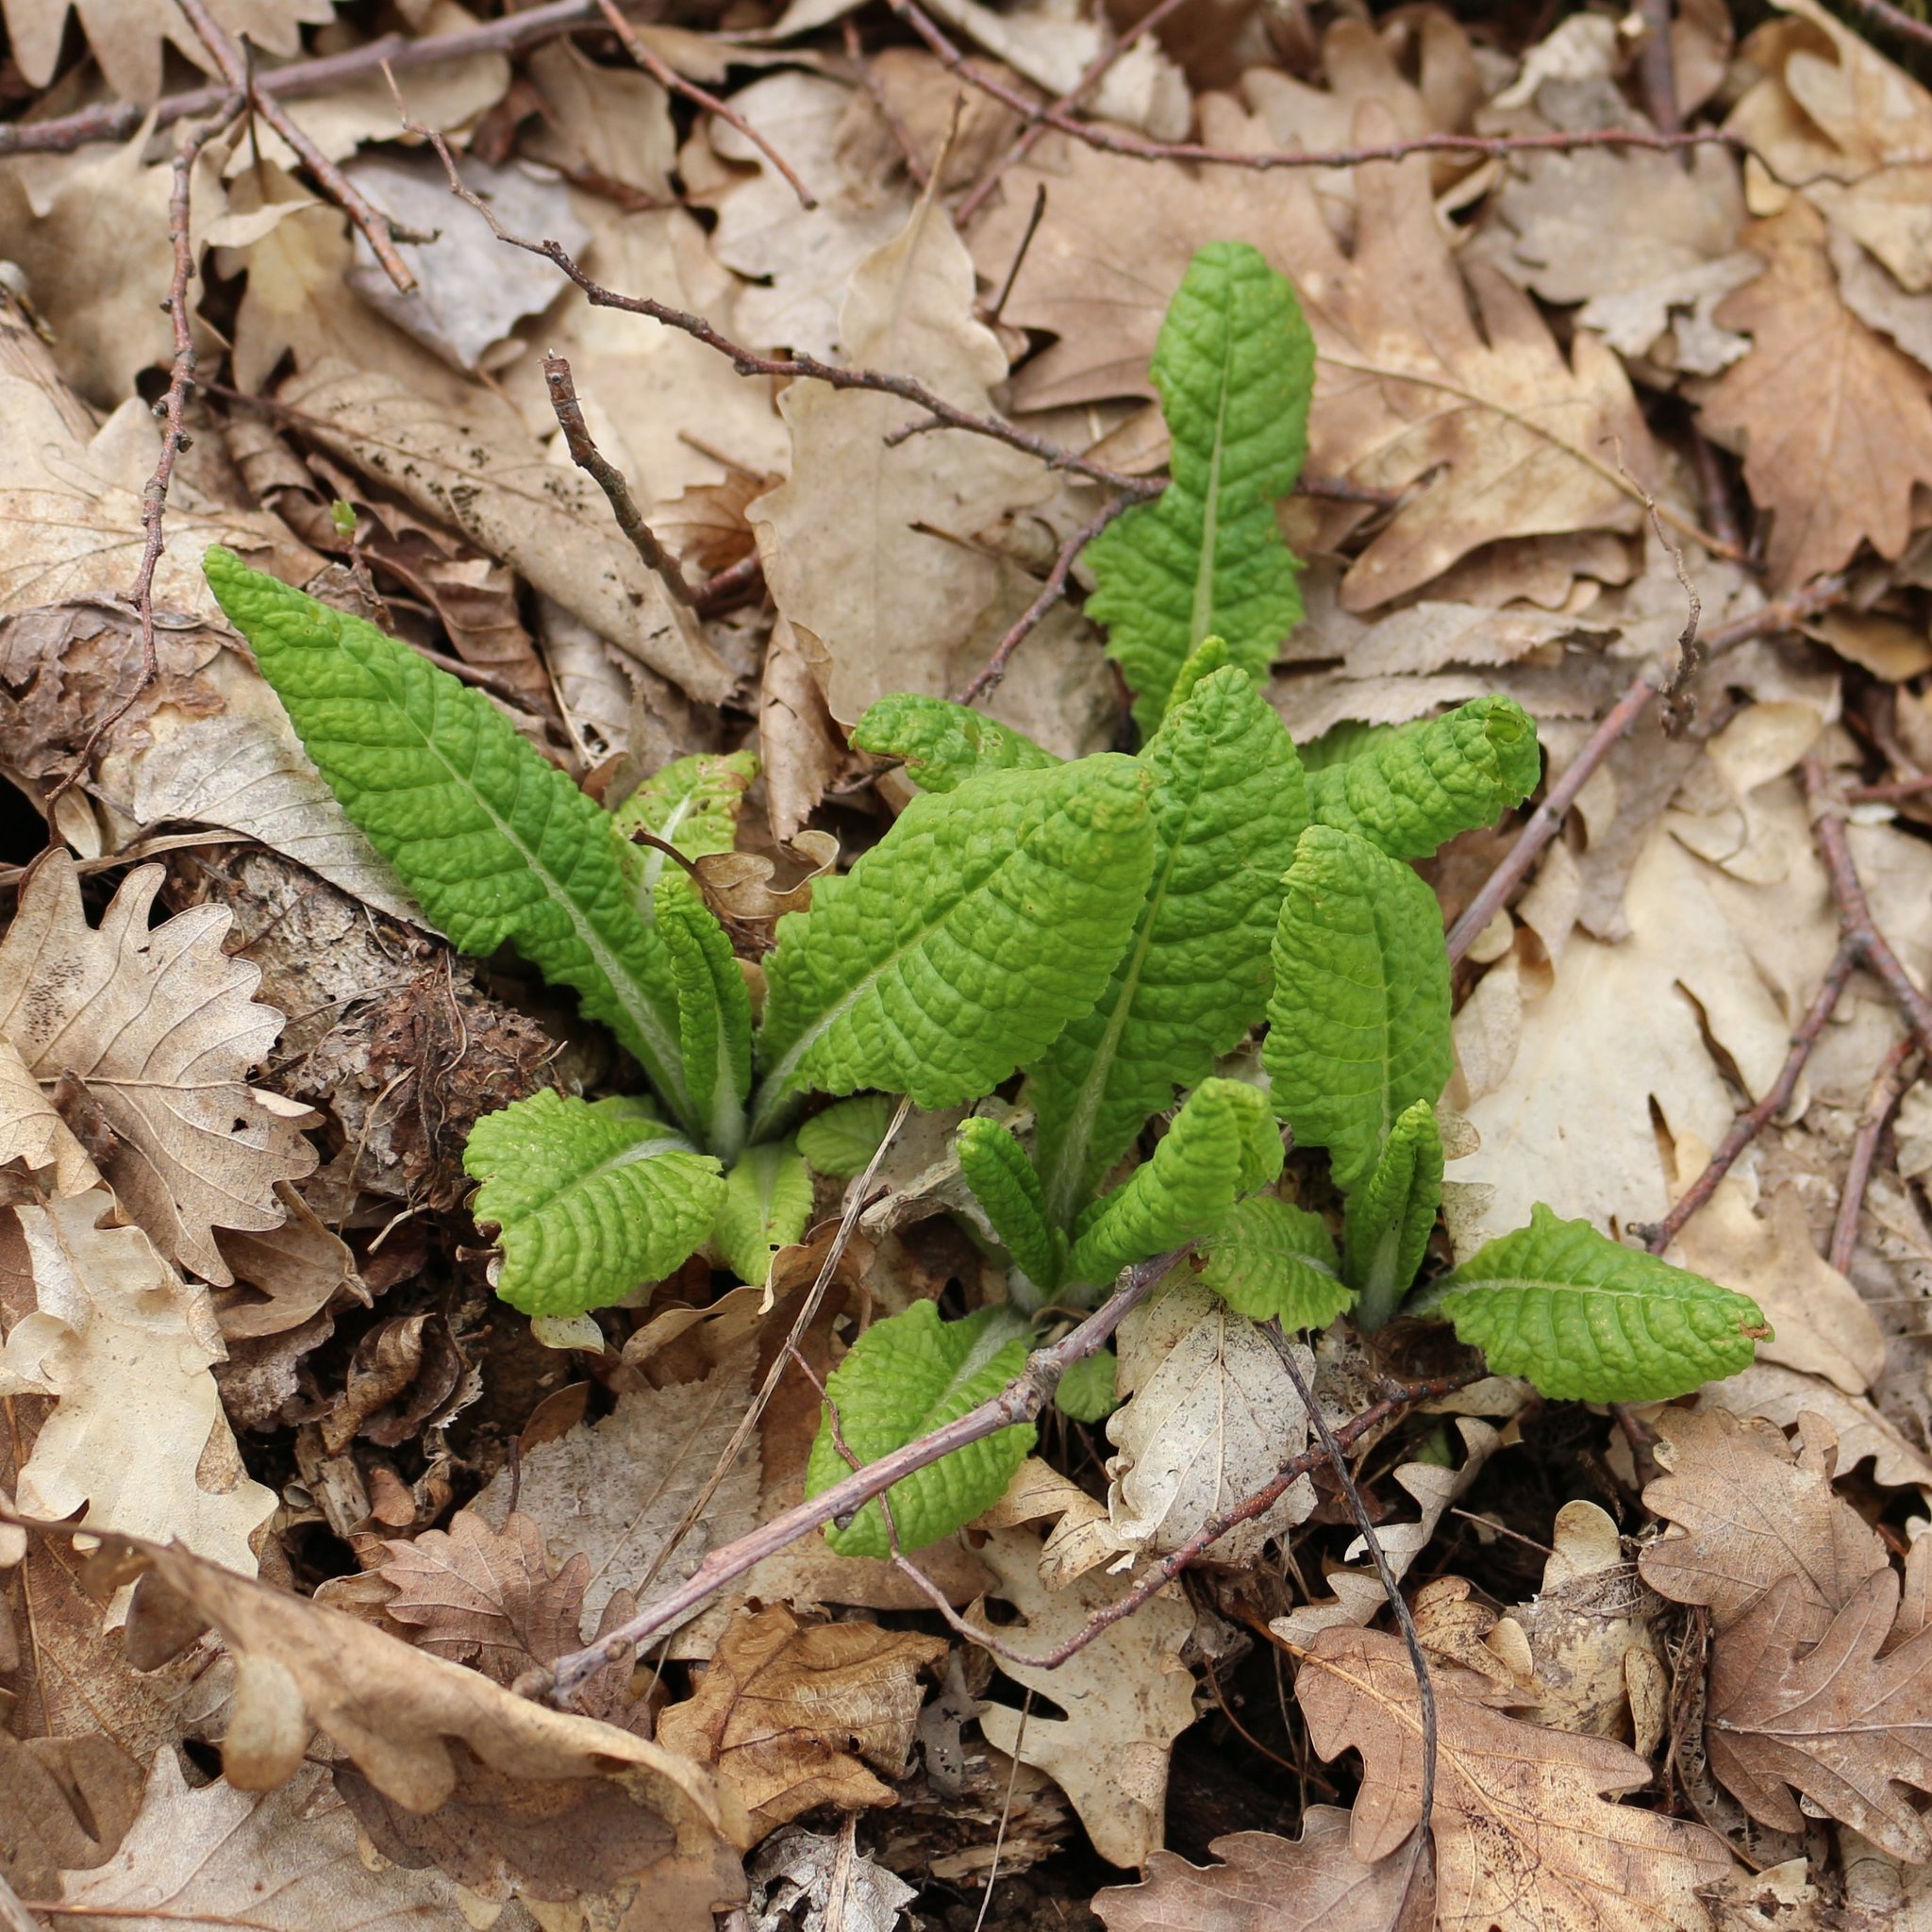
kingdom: Plantae
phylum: Tracheophyta
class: Magnoliopsida
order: Ericales
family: Primulaceae
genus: Primula
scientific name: Primula vulgaris
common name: Primrose
